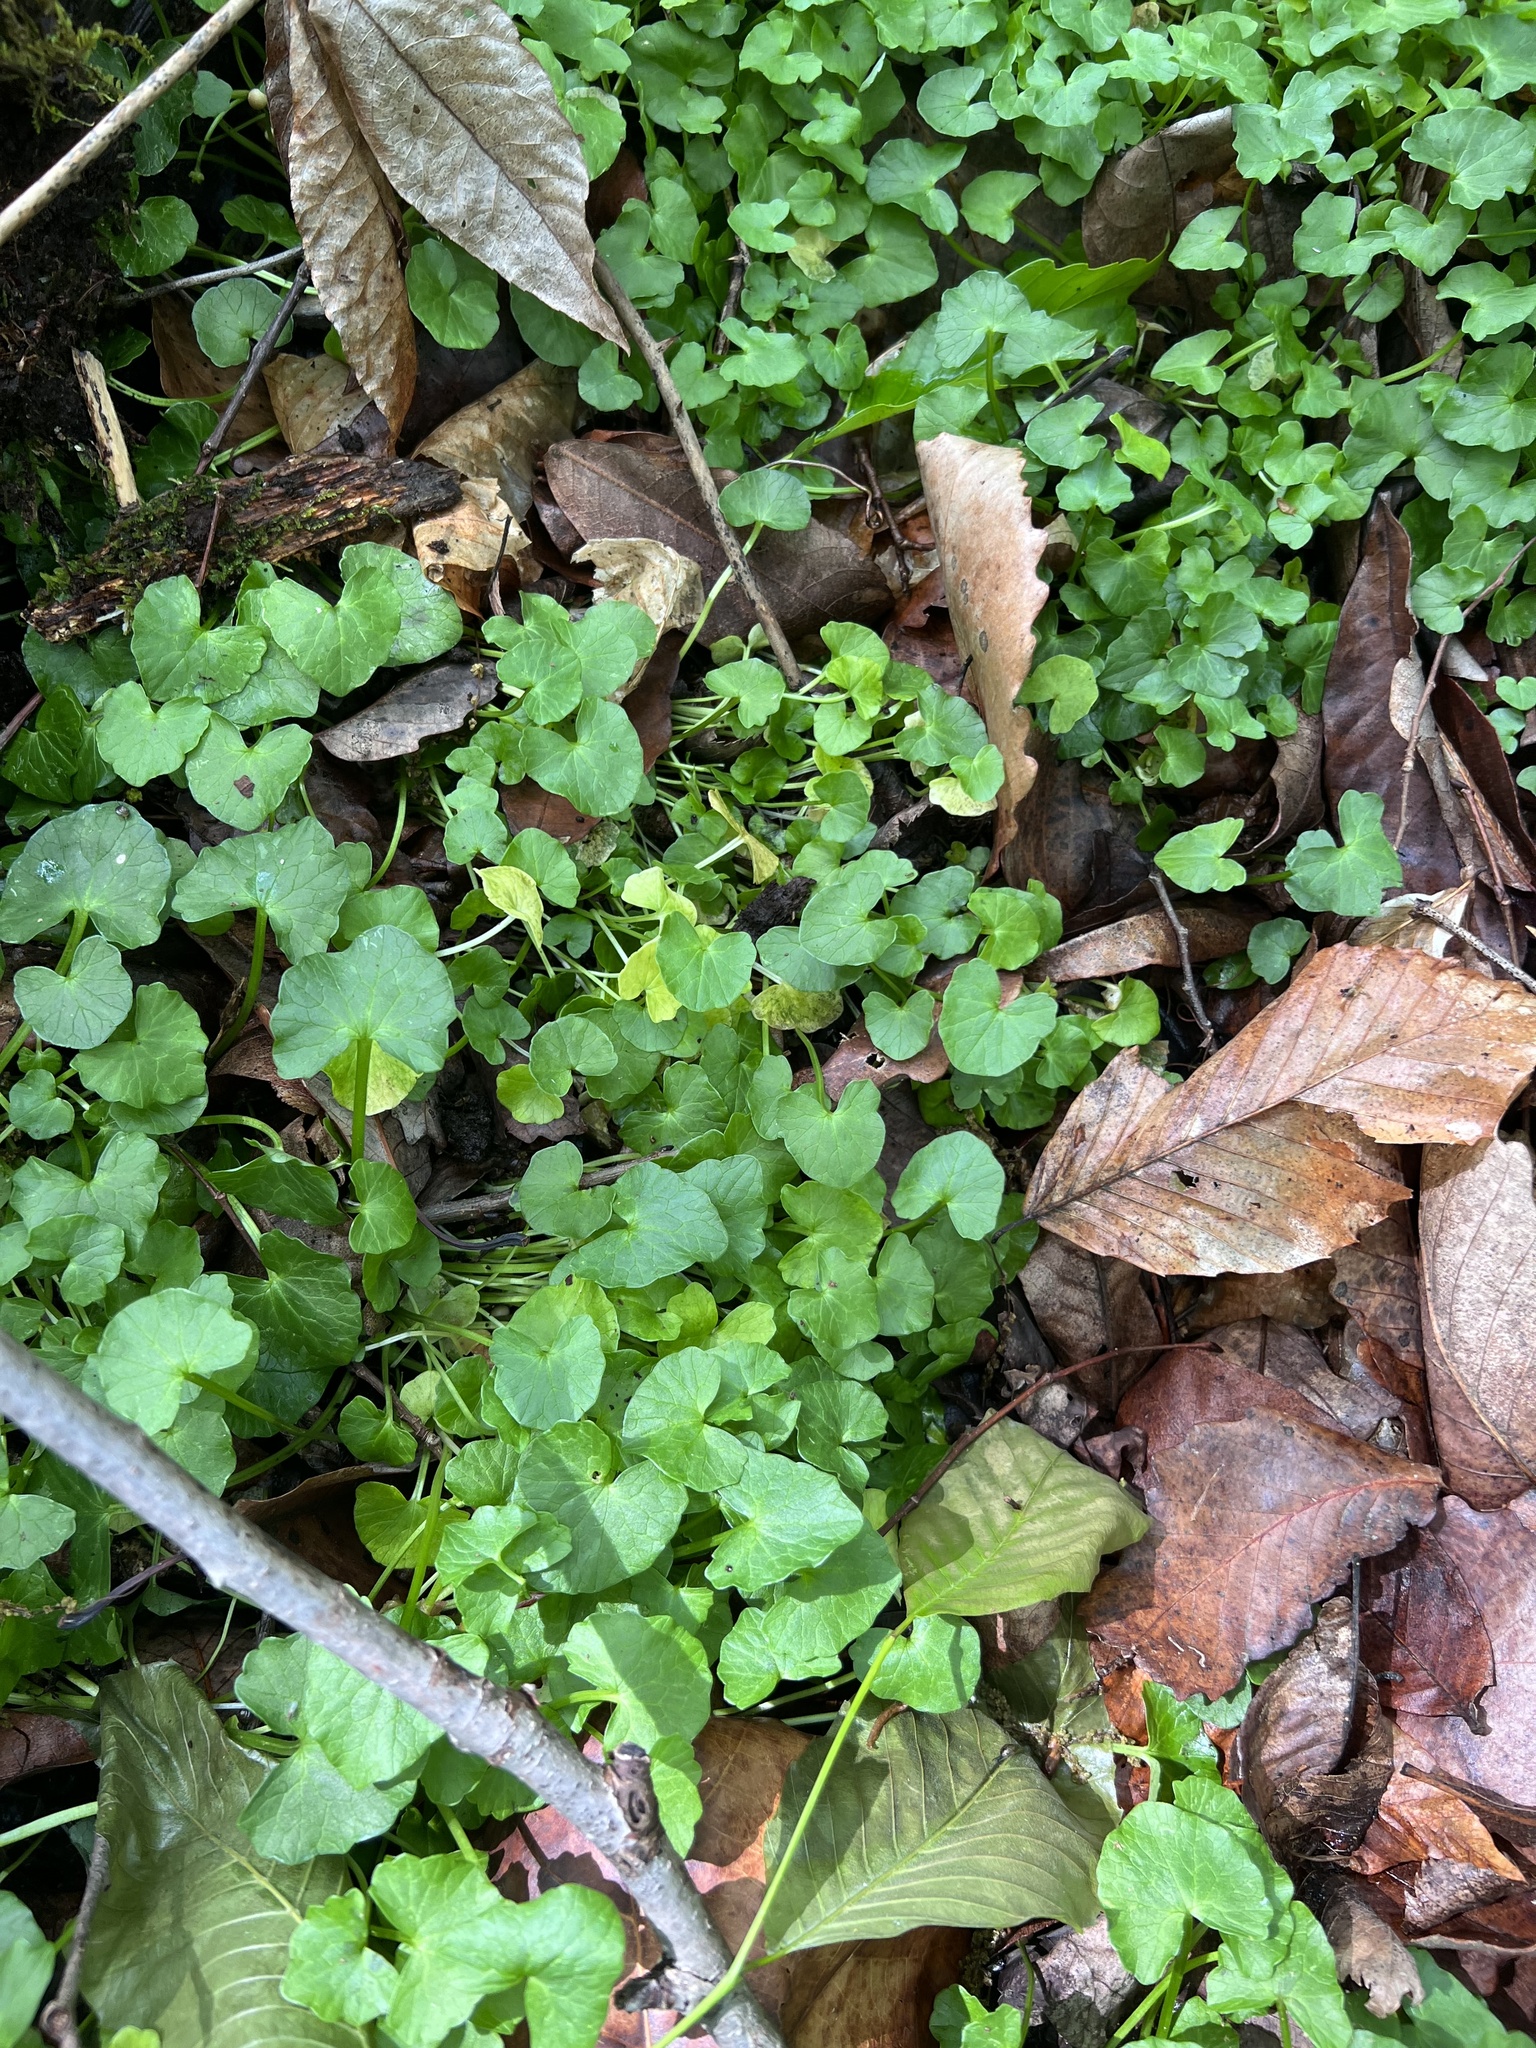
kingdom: Plantae
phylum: Tracheophyta
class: Magnoliopsida
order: Ranunculales
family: Ranunculaceae
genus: Ficaria
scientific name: Ficaria verna
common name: Lesser celandine
